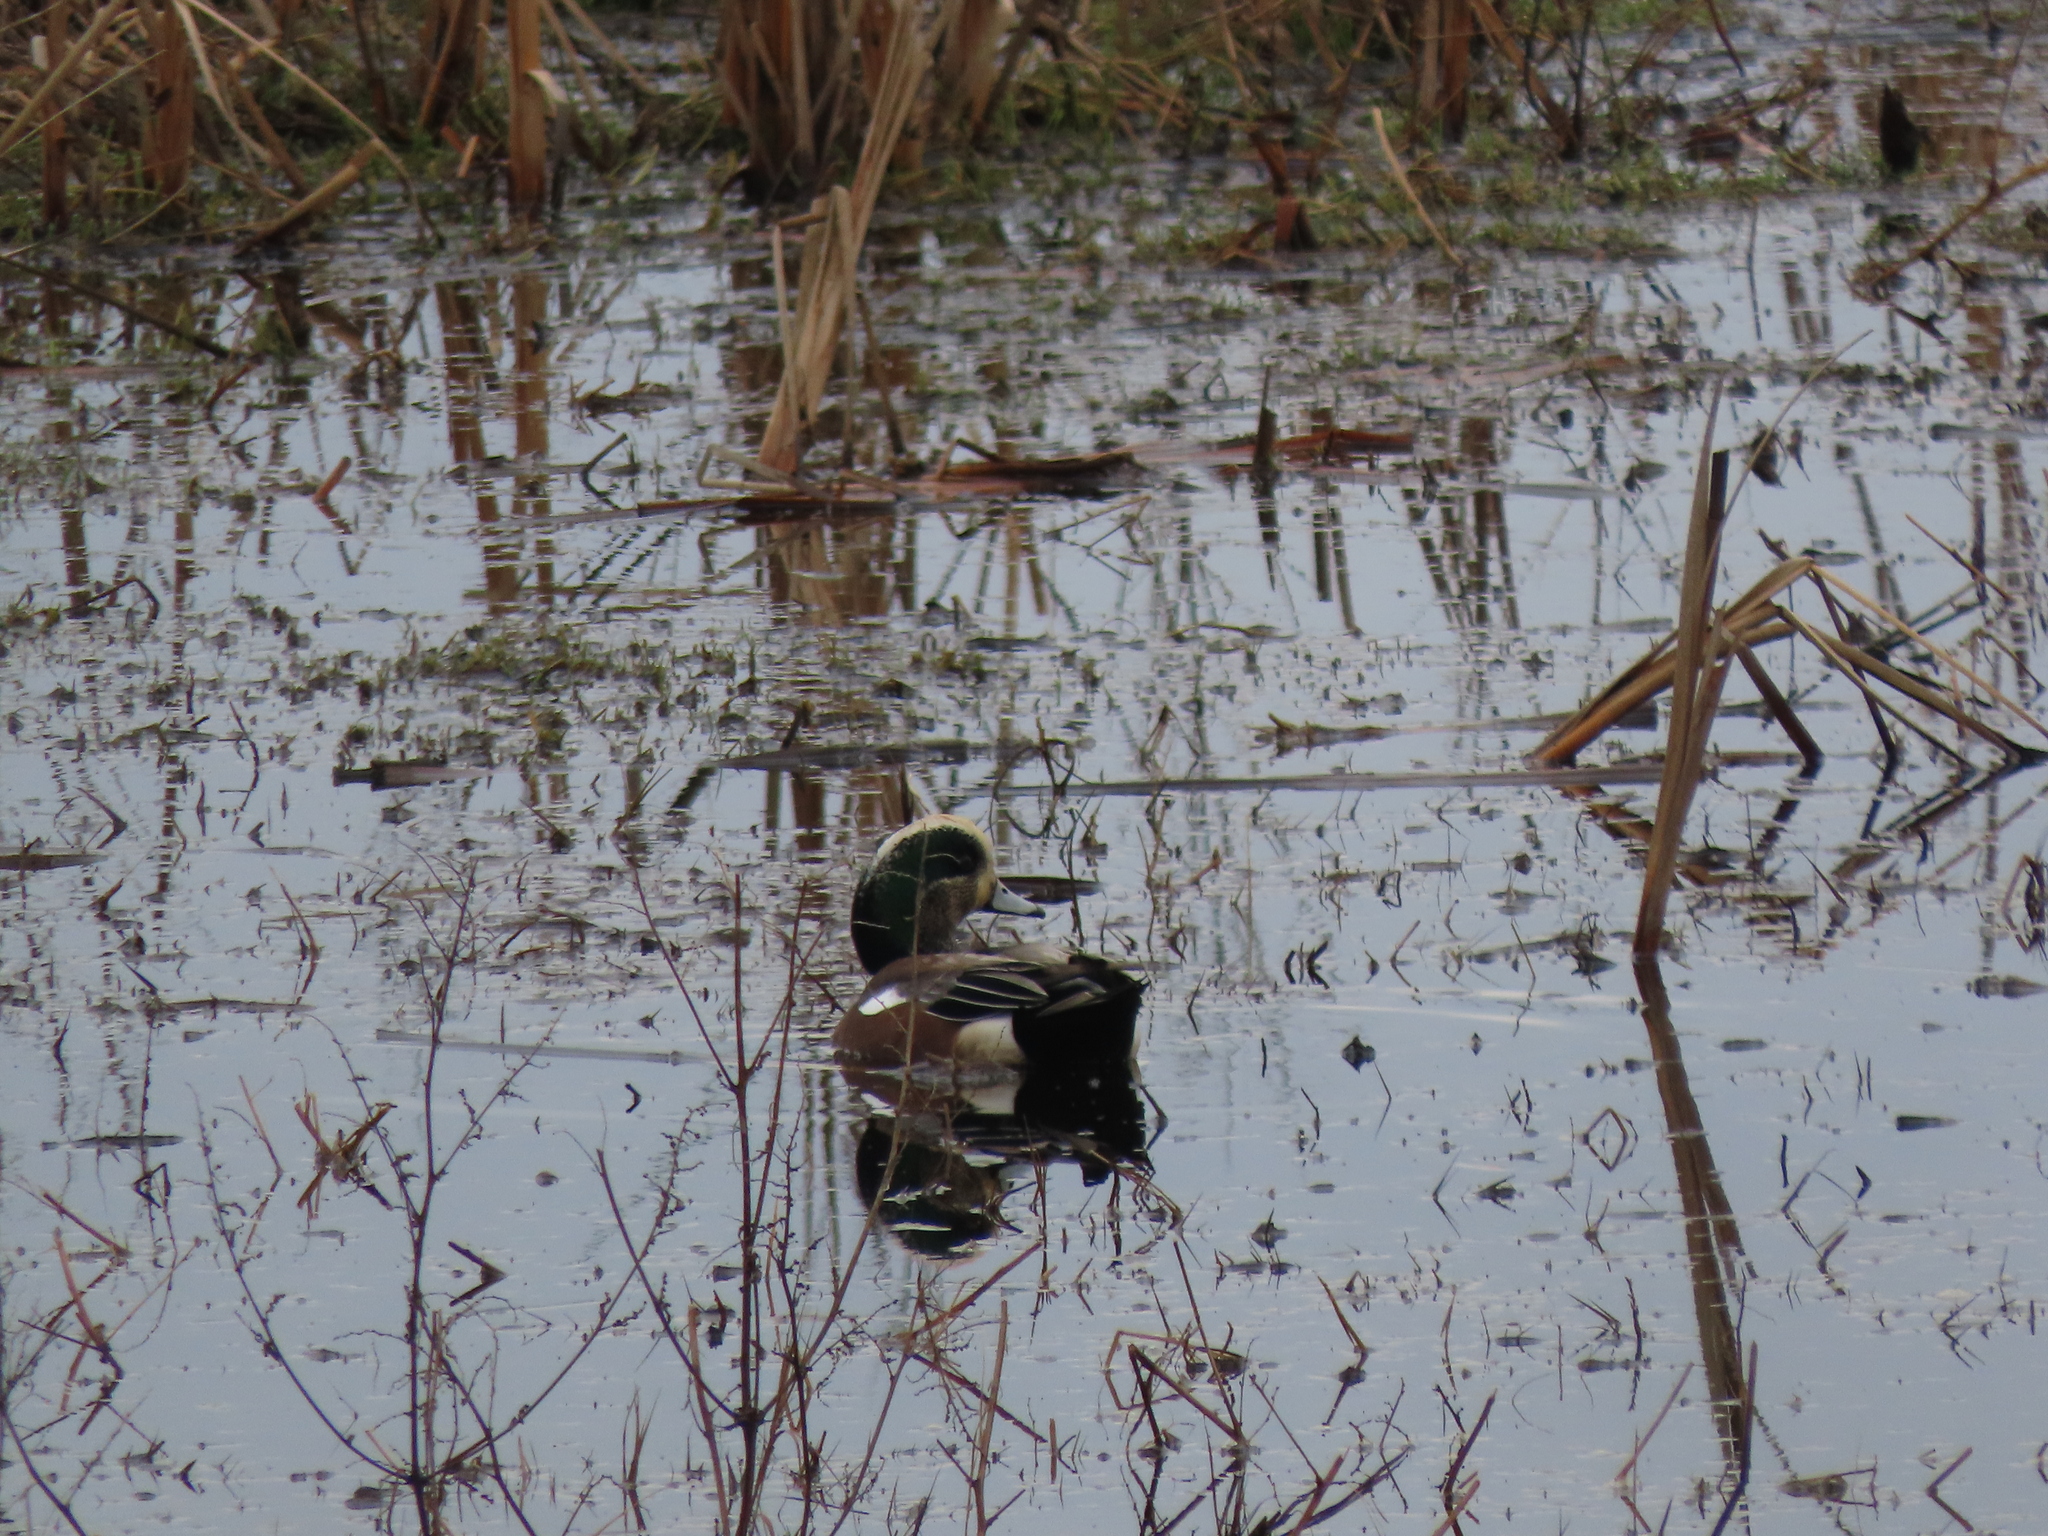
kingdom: Animalia
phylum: Chordata
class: Aves
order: Anseriformes
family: Anatidae
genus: Mareca
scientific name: Mareca americana
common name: American wigeon
